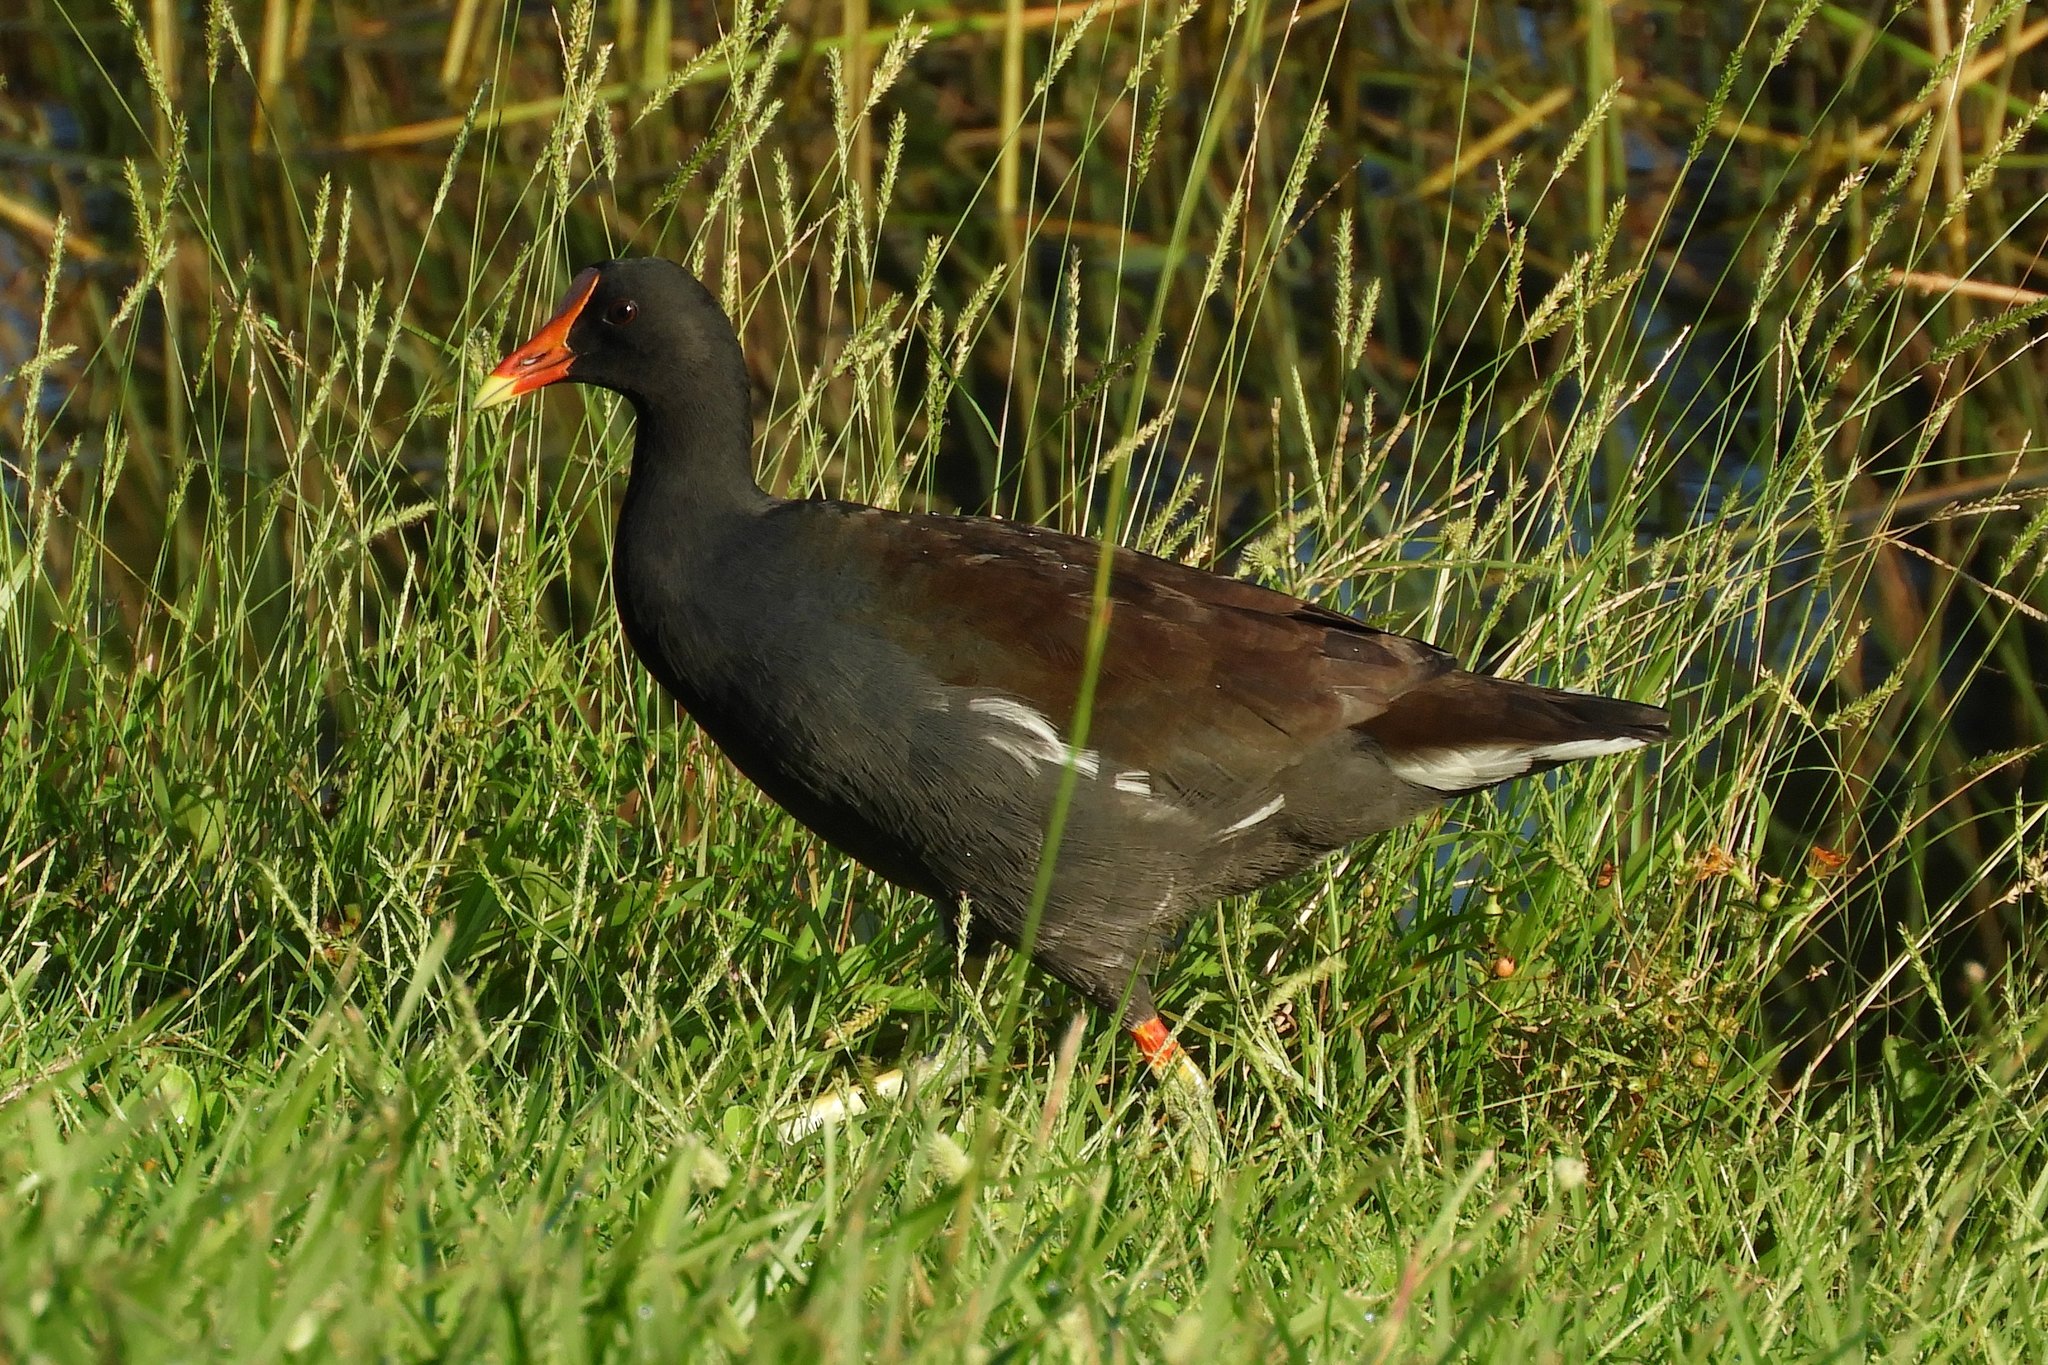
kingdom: Animalia
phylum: Chordata
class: Aves
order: Gruiformes
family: Rallidae
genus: Gallinula
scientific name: Gallinula chloropus
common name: Common moorhen
